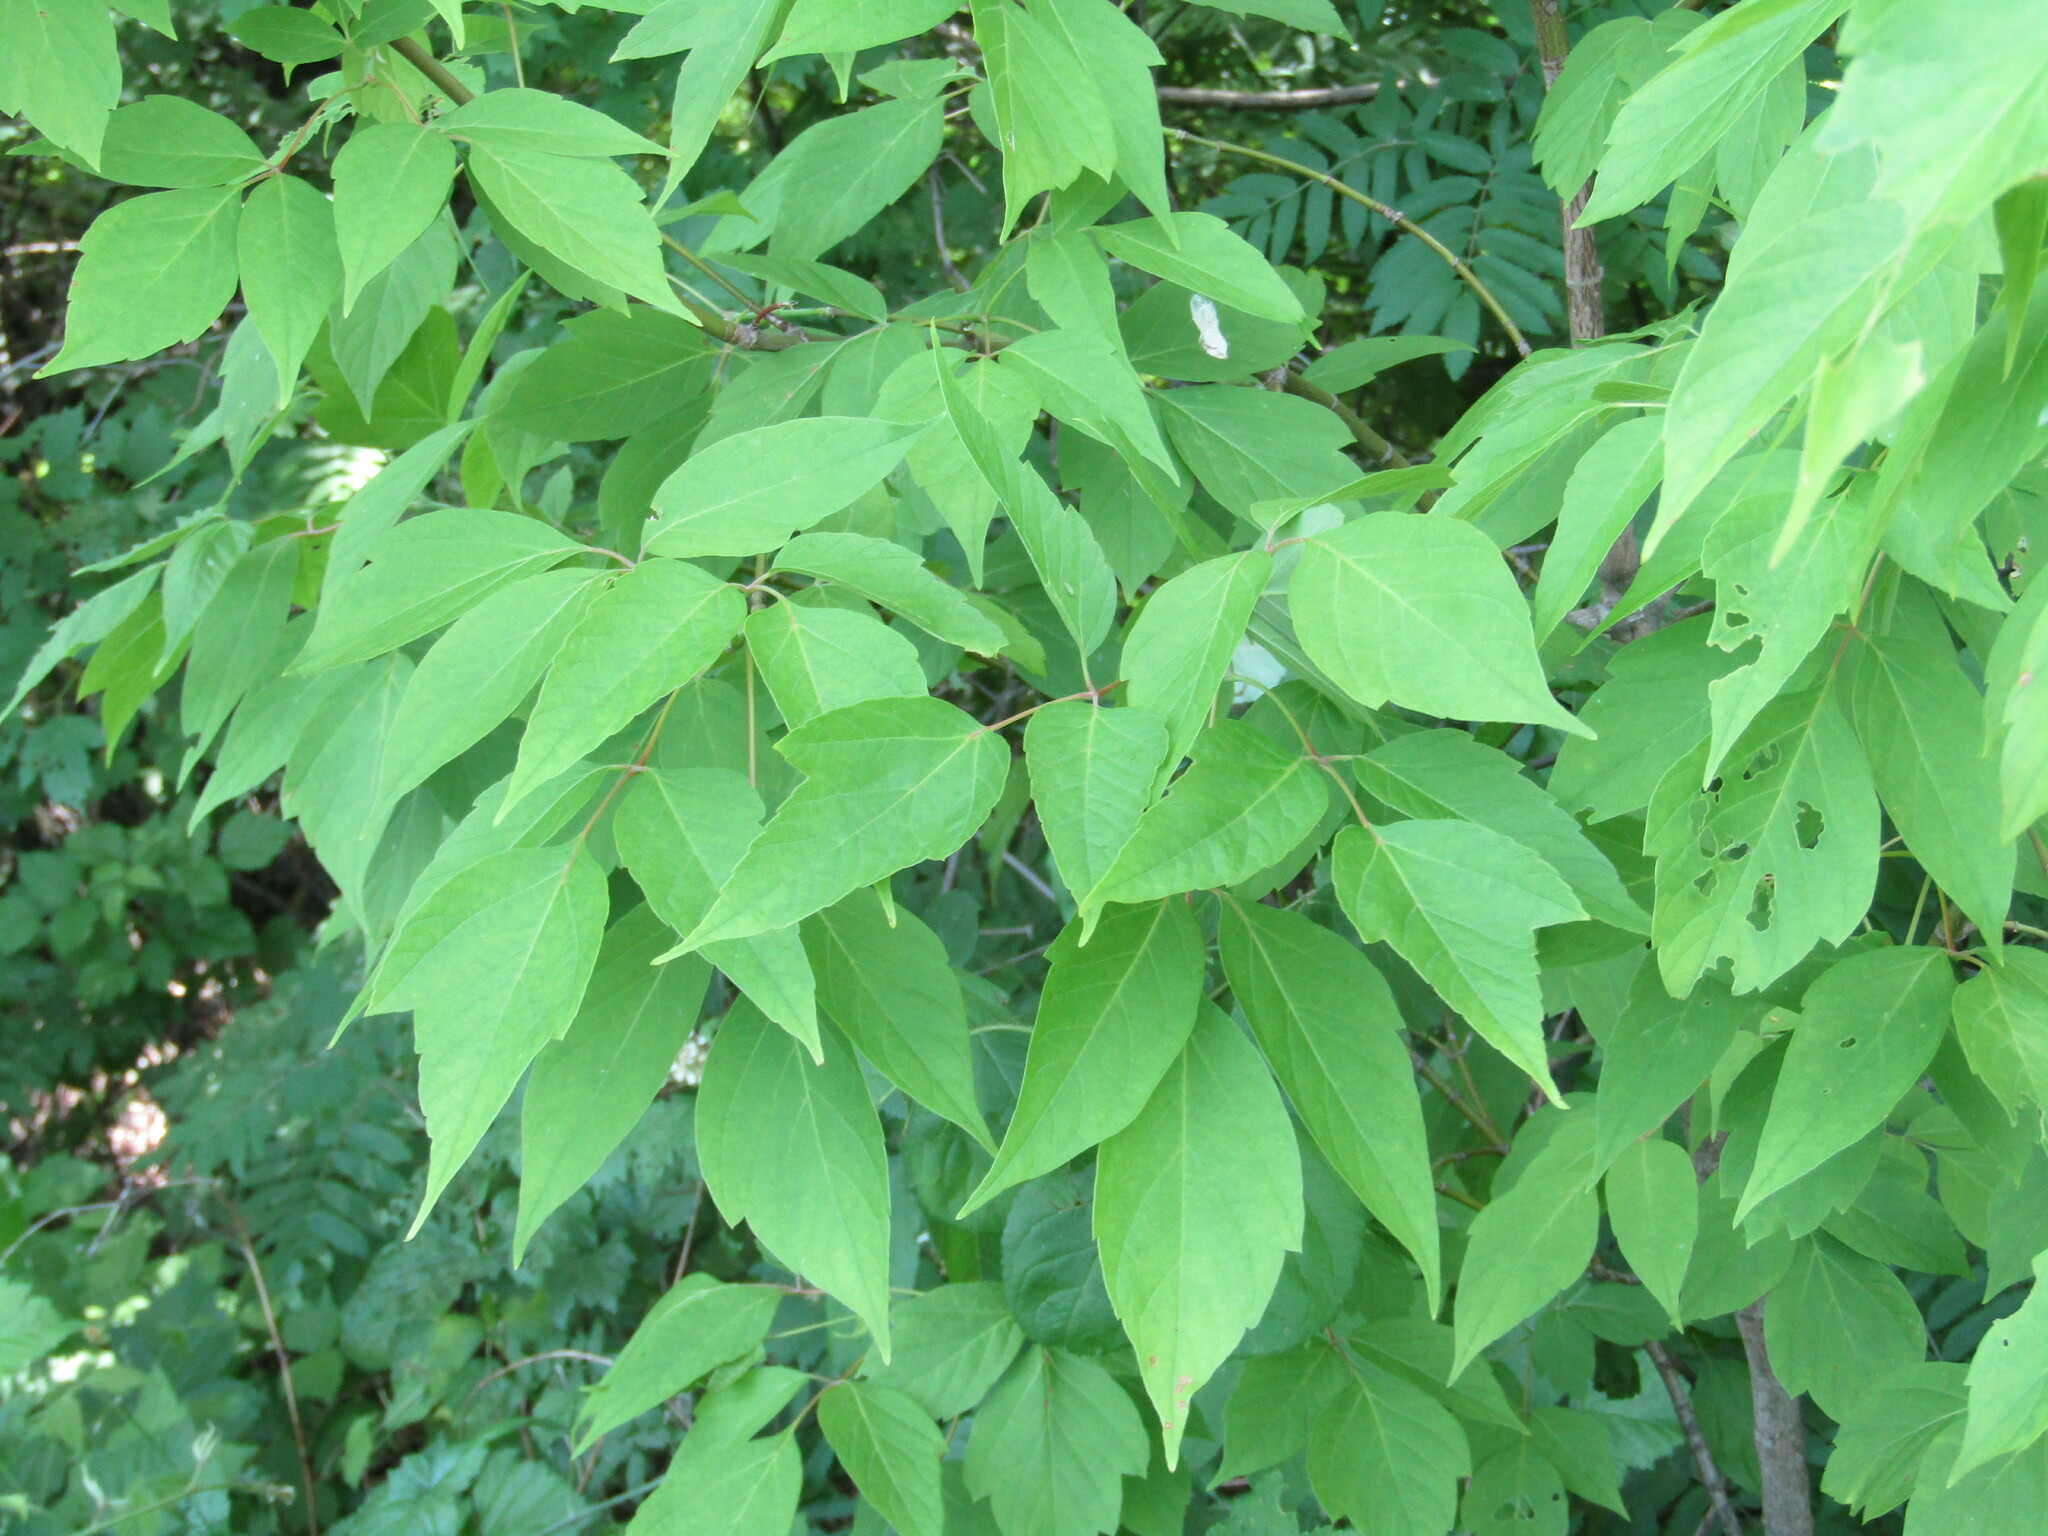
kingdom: Plantae
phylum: Tracheophyta
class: Magnoliopsida
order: Sapindales
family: Sapindaceae
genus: Acer
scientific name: Acer negundo
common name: Ashleaf maple
